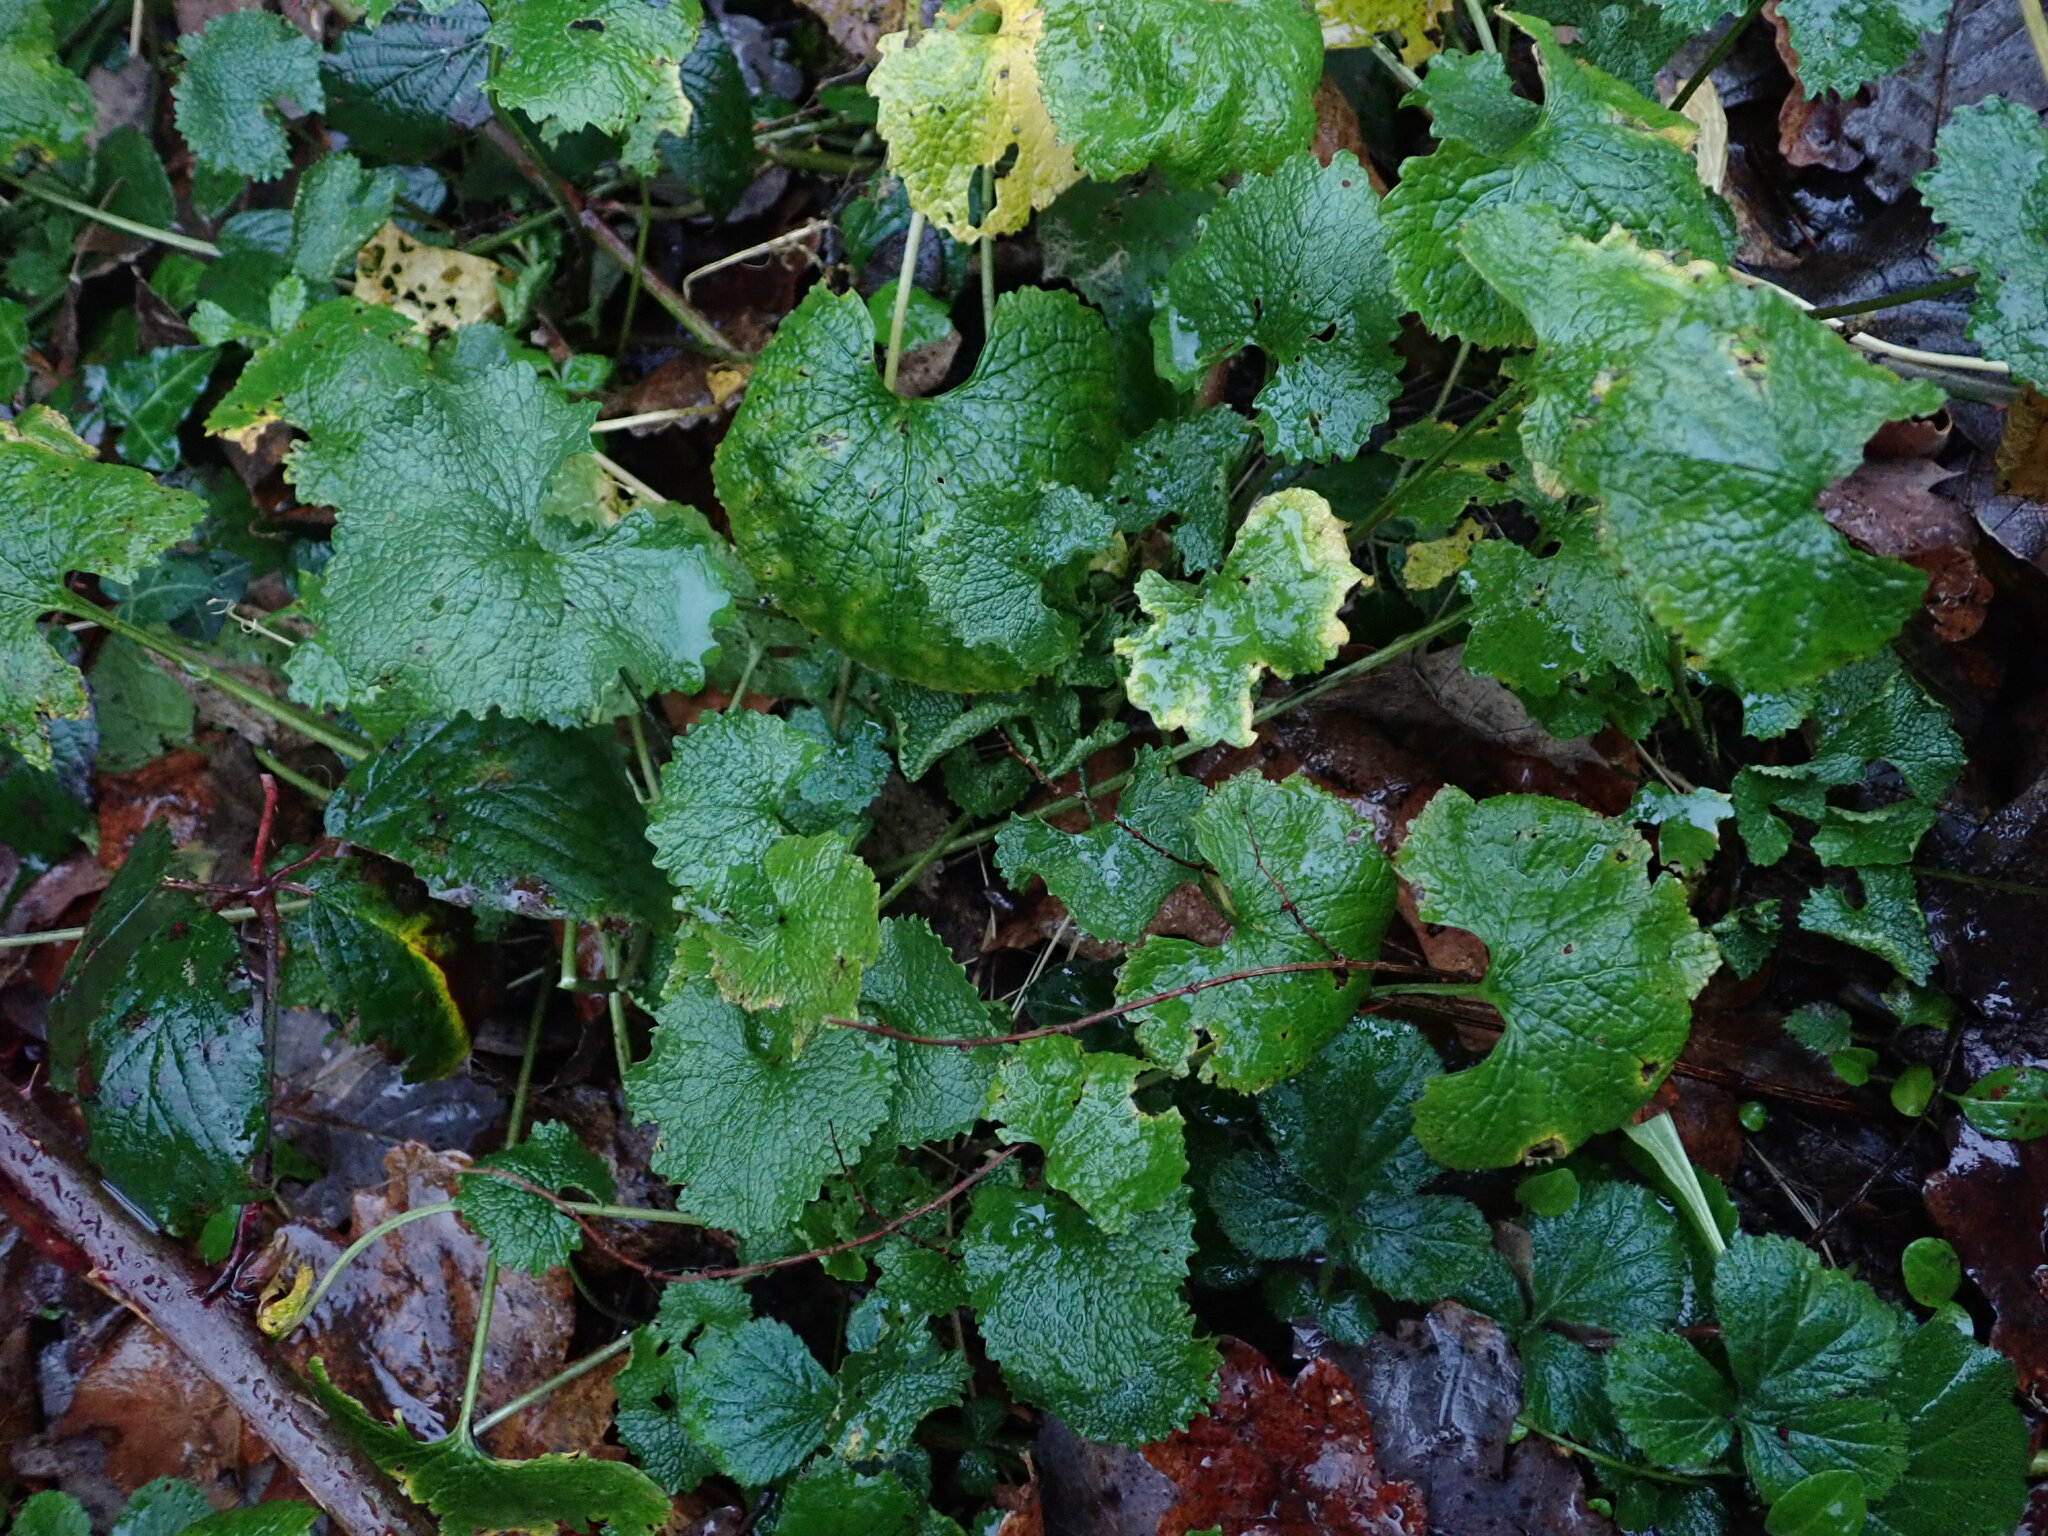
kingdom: Plantae
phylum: Tracheophyta
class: Magnoliopsida
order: Brassicales
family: Brassicaceae
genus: Alliaria
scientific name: Alliaria petiolata
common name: Garlic mustard
